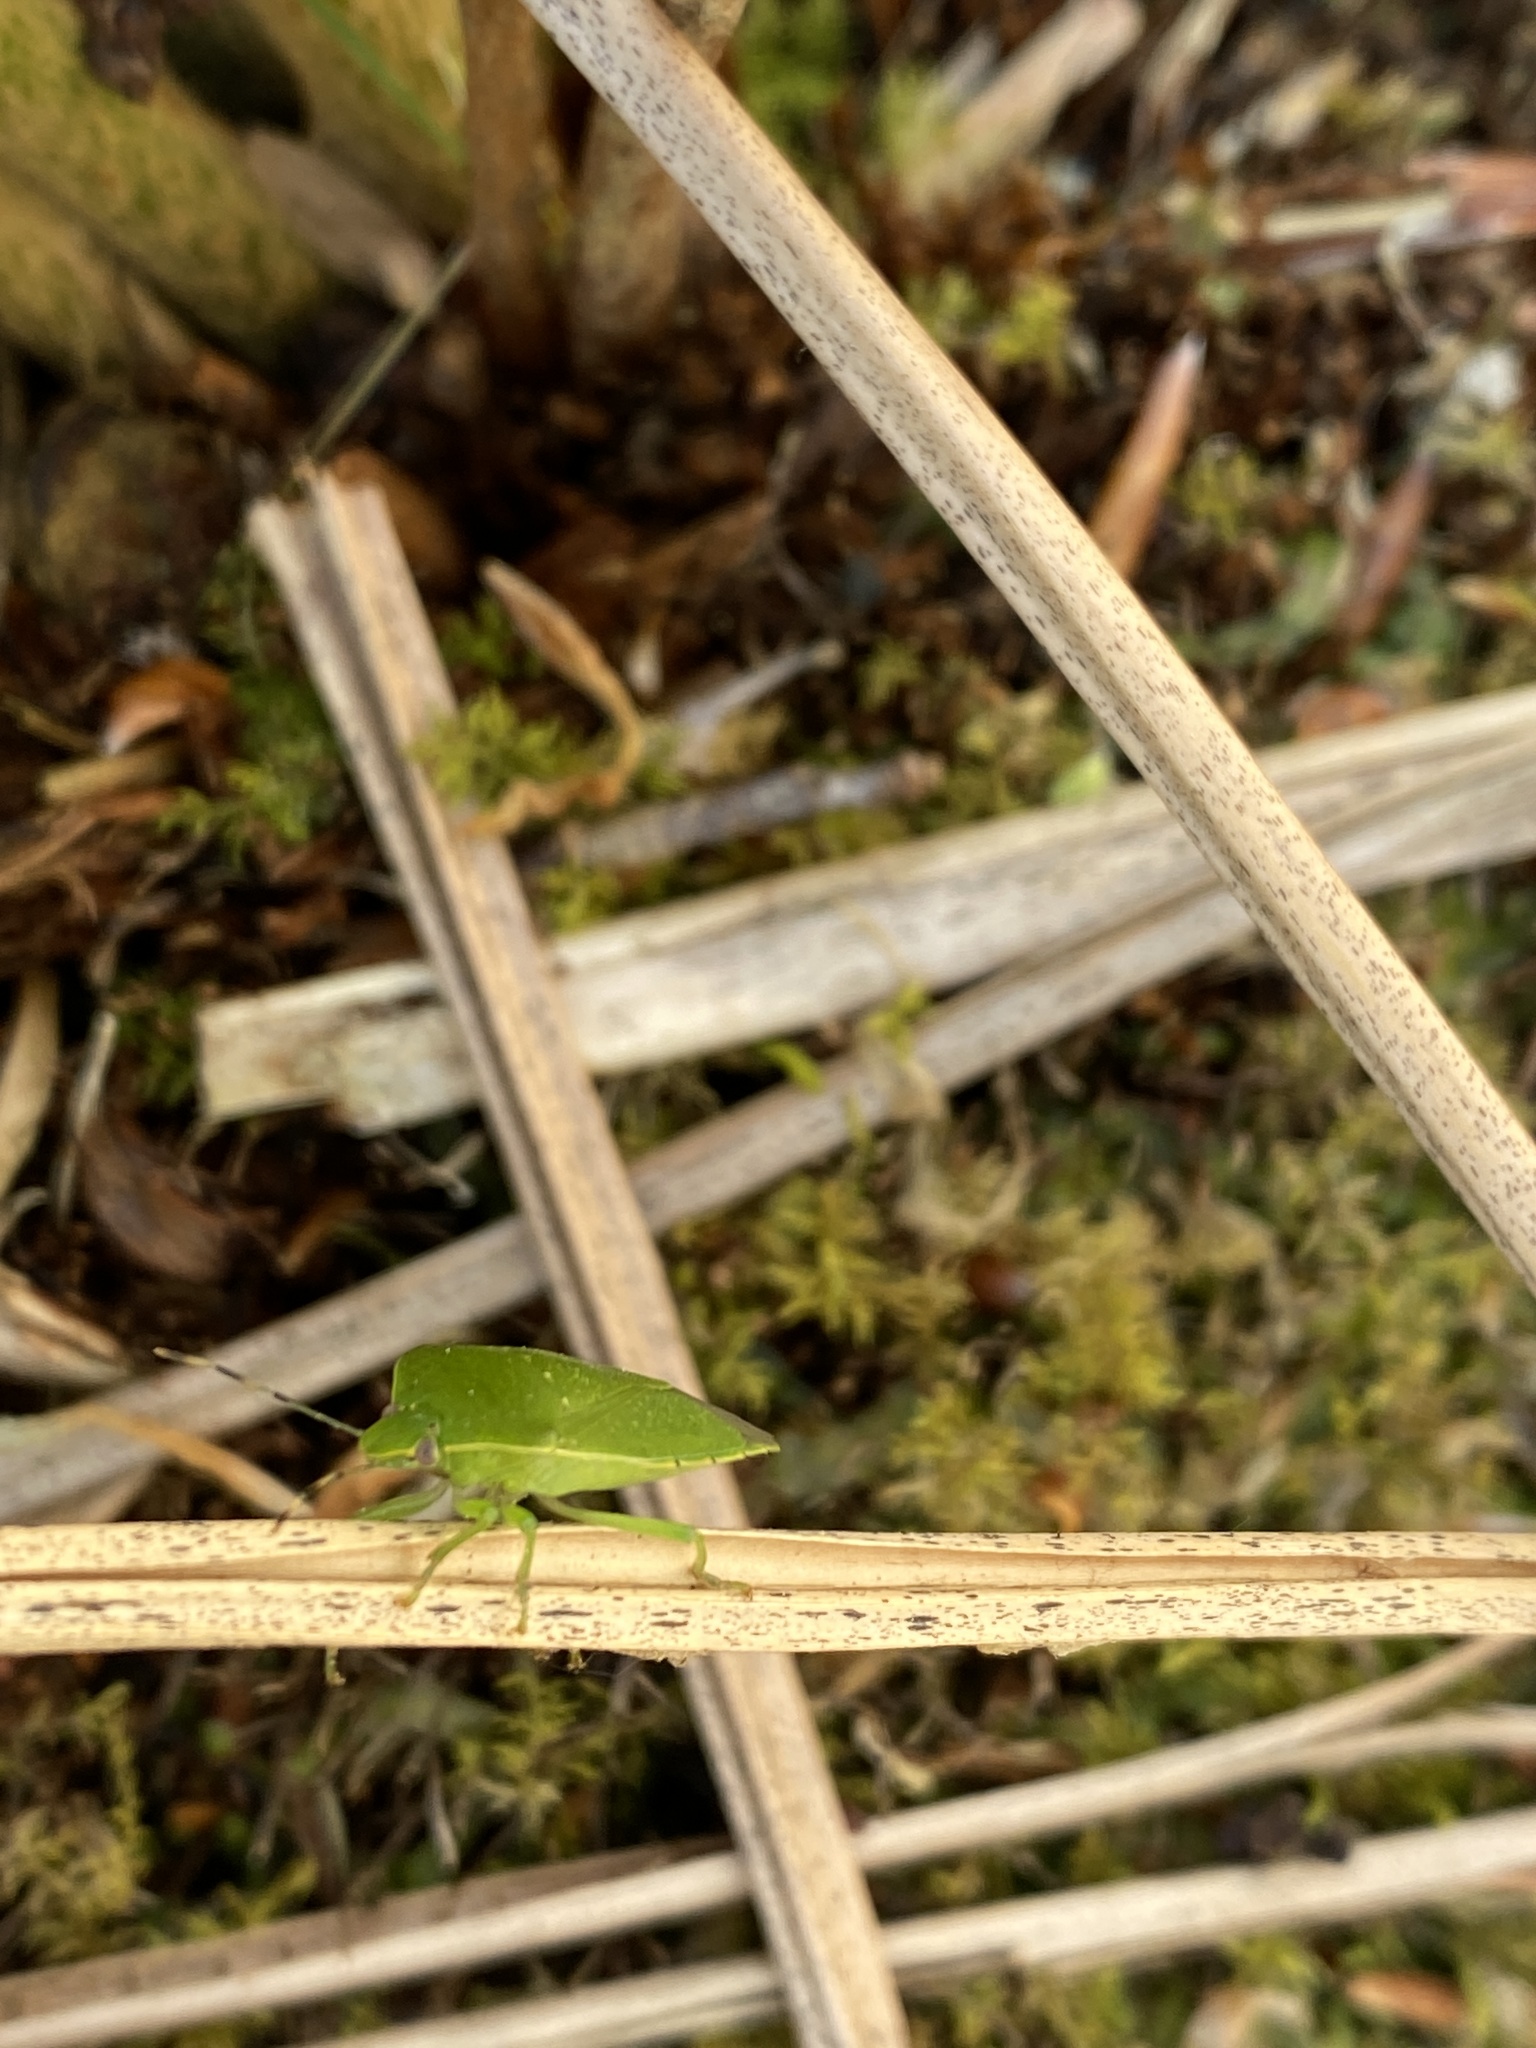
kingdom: Animalia
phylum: Arthropoda
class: Insecta
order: Hemiptera
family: Pentatomidae
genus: Chinavia
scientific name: Chinavia hilaris
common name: Green stink bug
